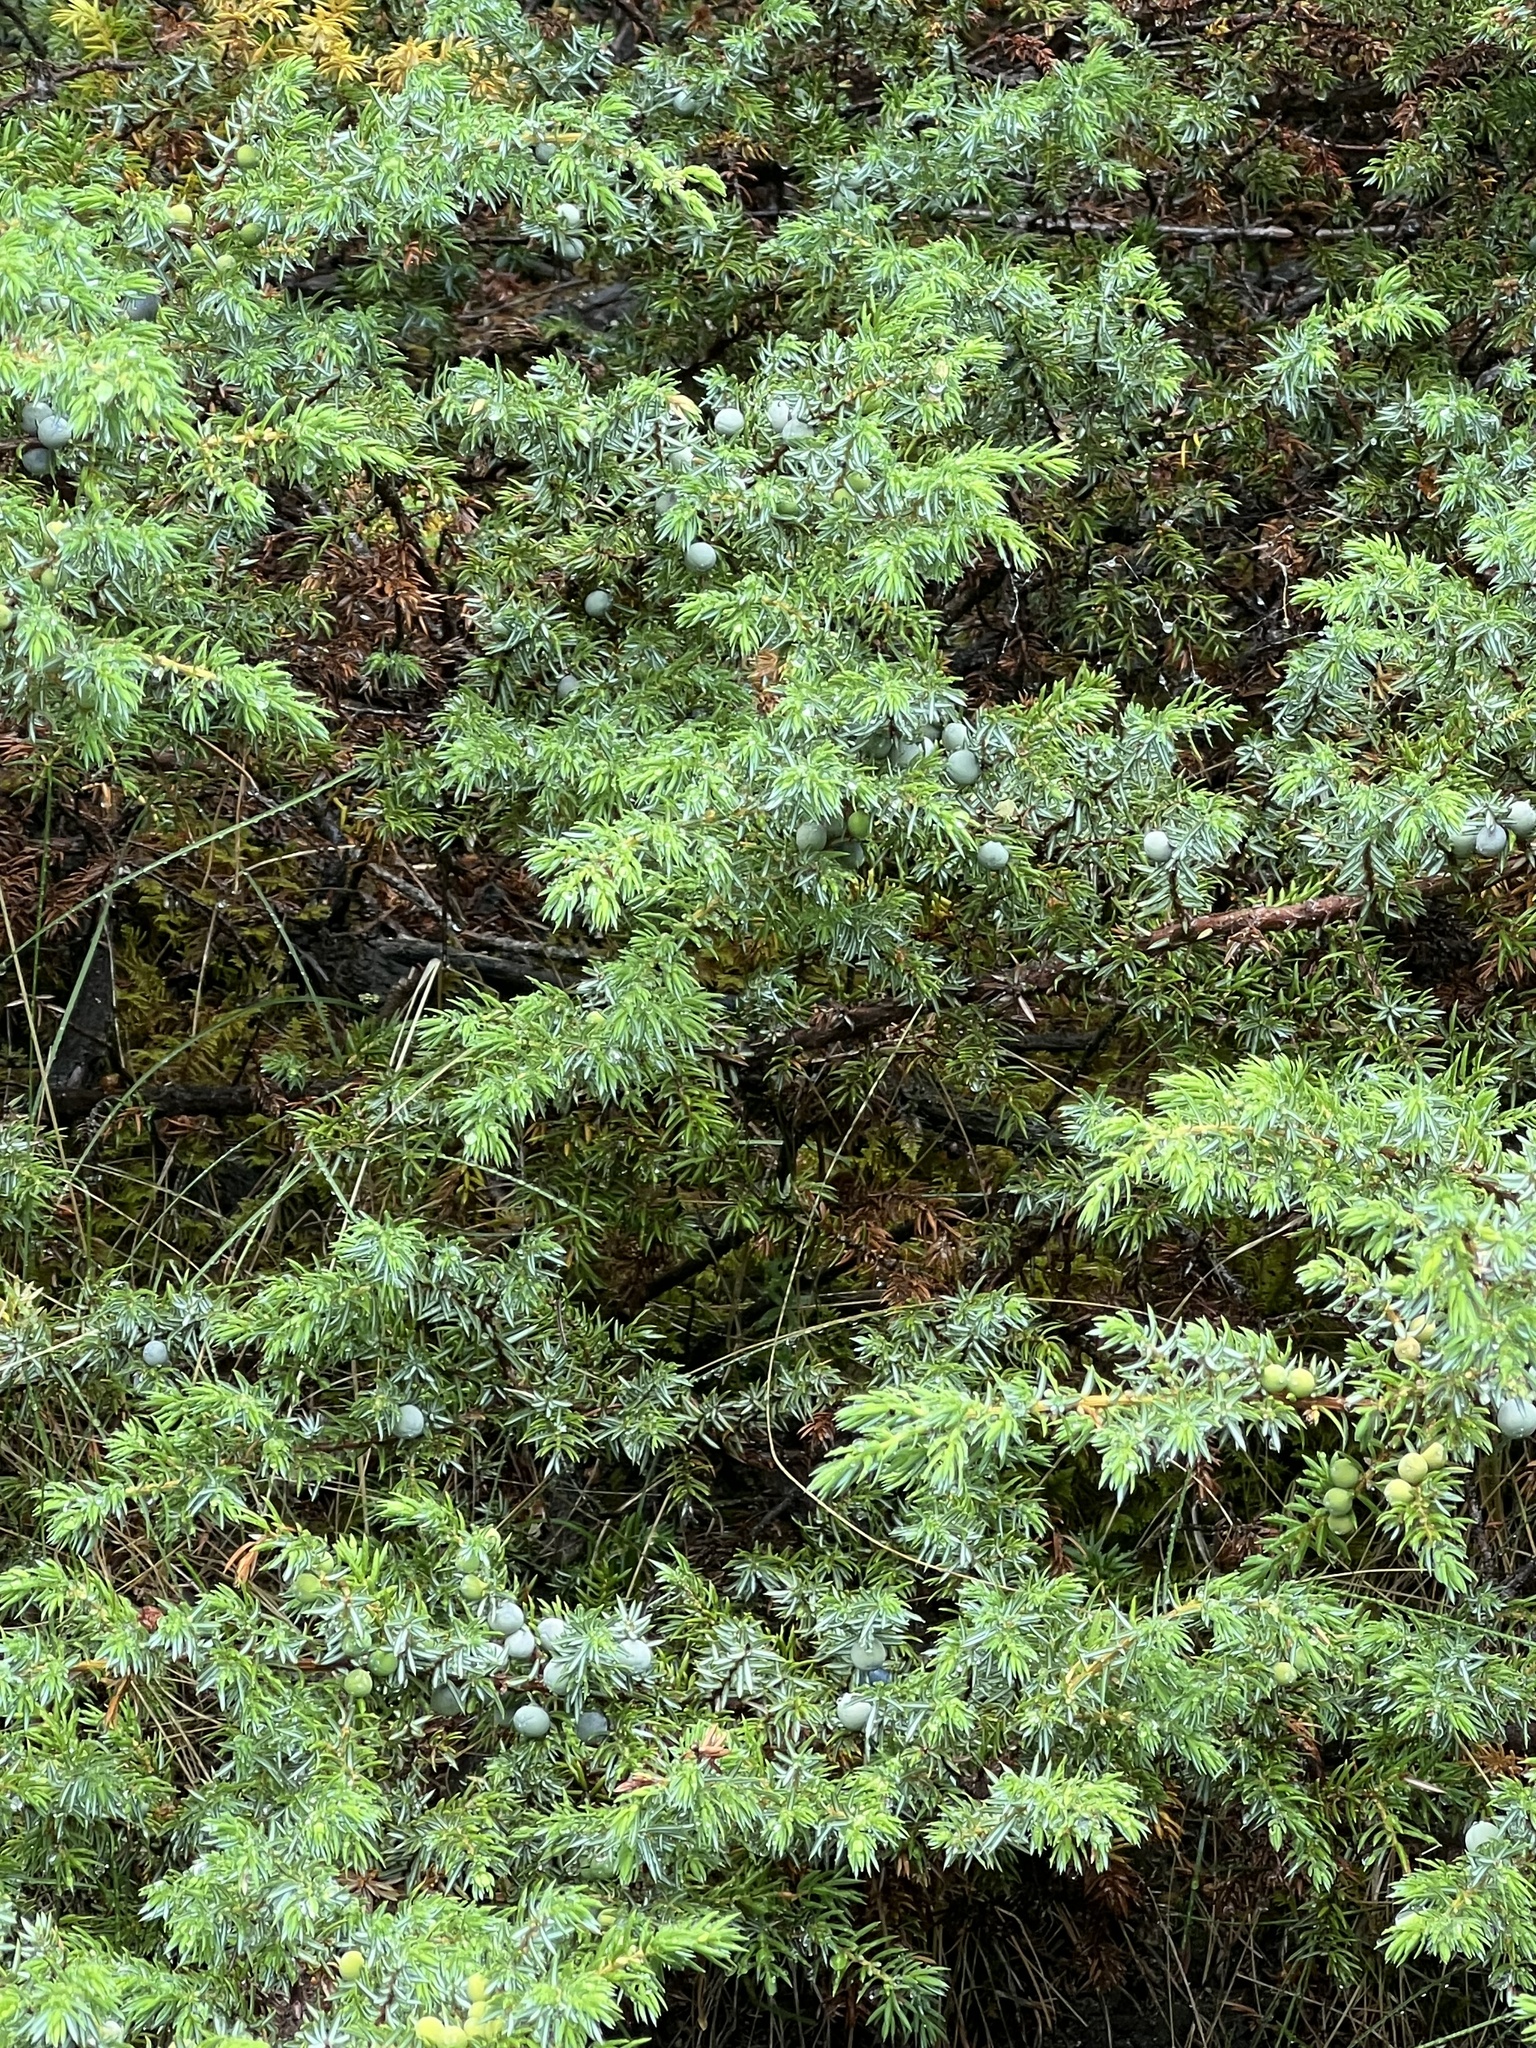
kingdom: Plantae
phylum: Tracheophyta
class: Pinopsida
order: Pinales
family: Cupressaceae
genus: Juniperus
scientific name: Juniperus communis
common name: Common juniper
